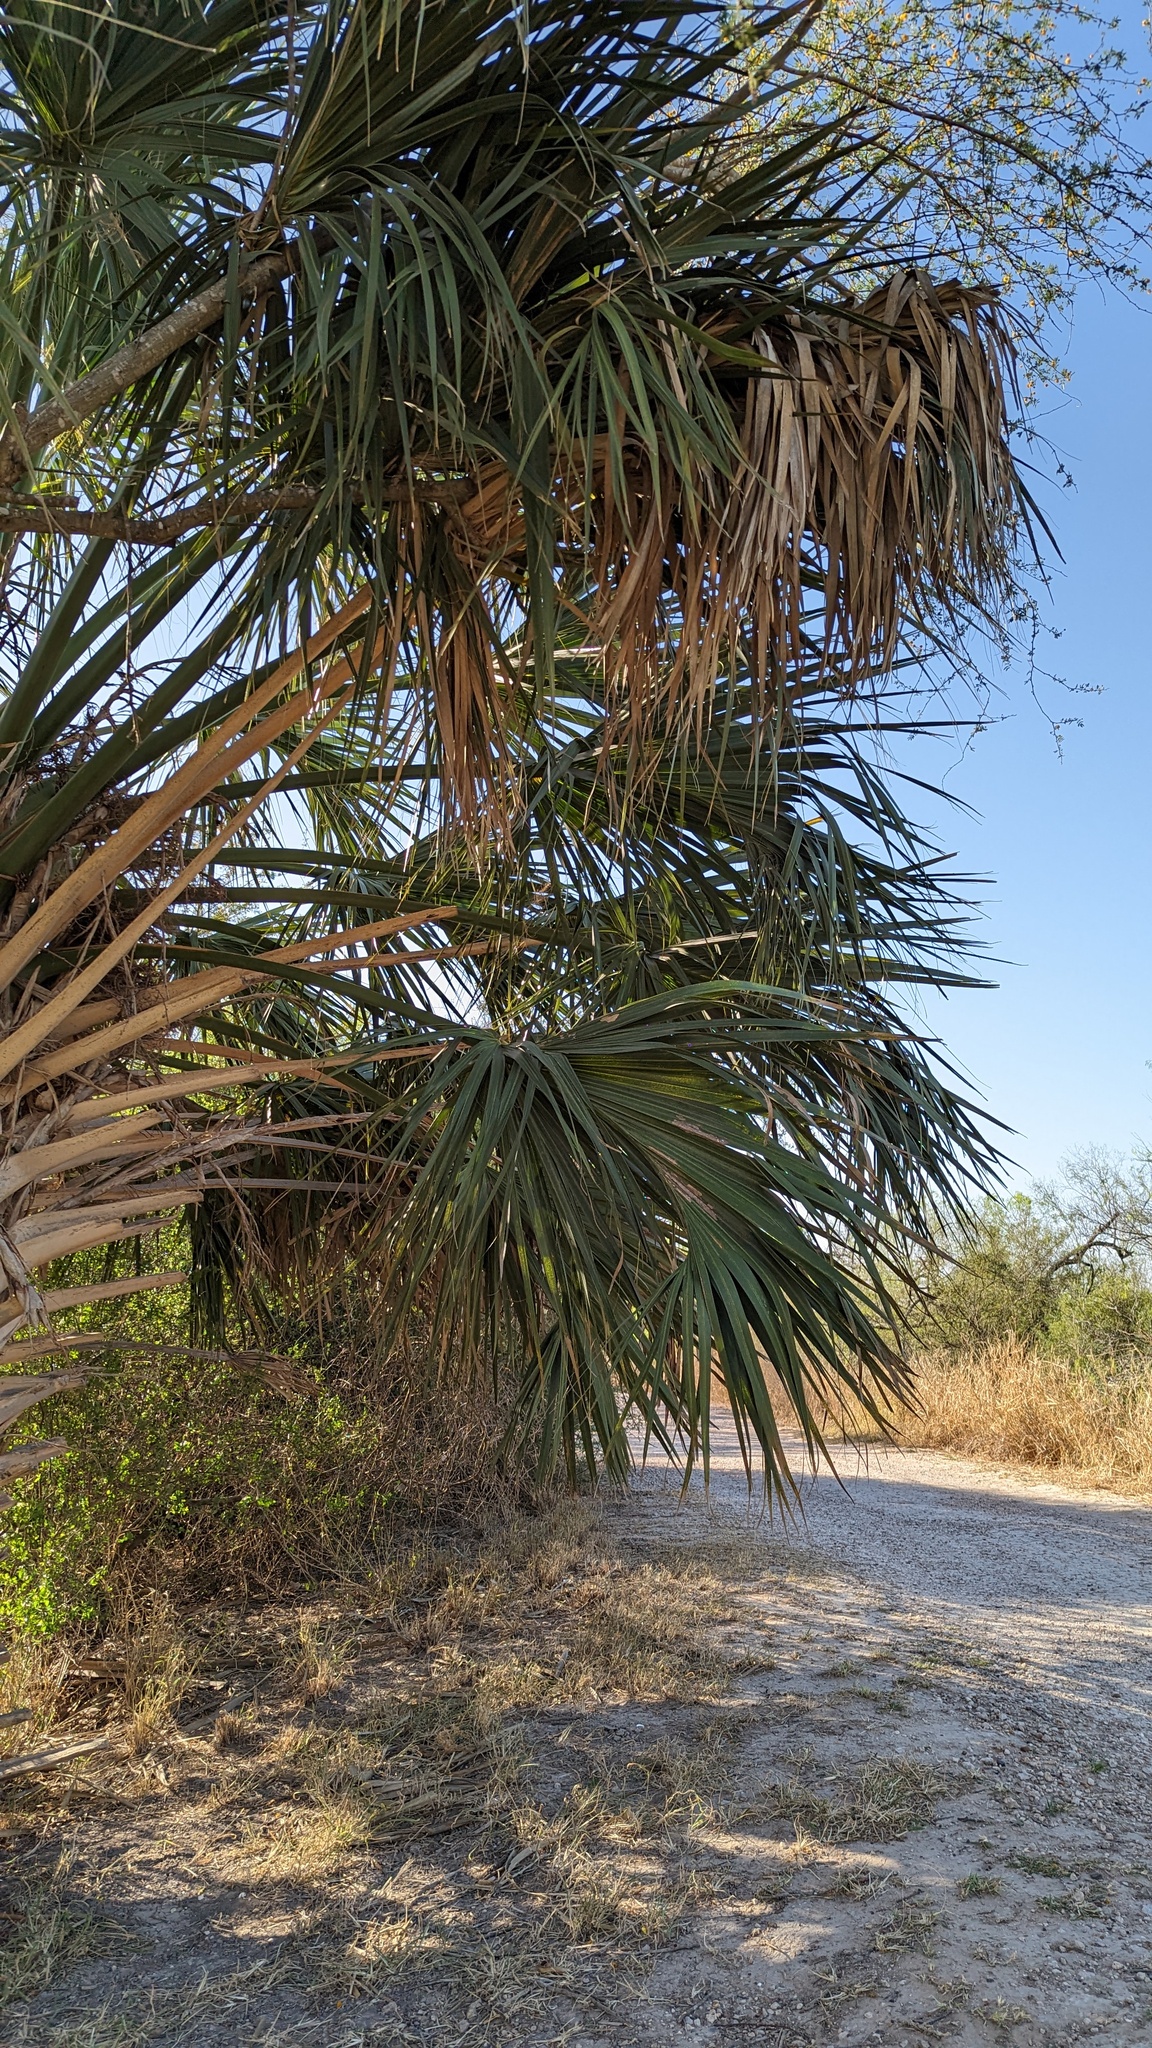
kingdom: Plantae
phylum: Tracheophyta
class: Liliopsida
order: Arecales
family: Arecaceae
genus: Sabal
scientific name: Sabal mexicana
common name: Texas palmetto
